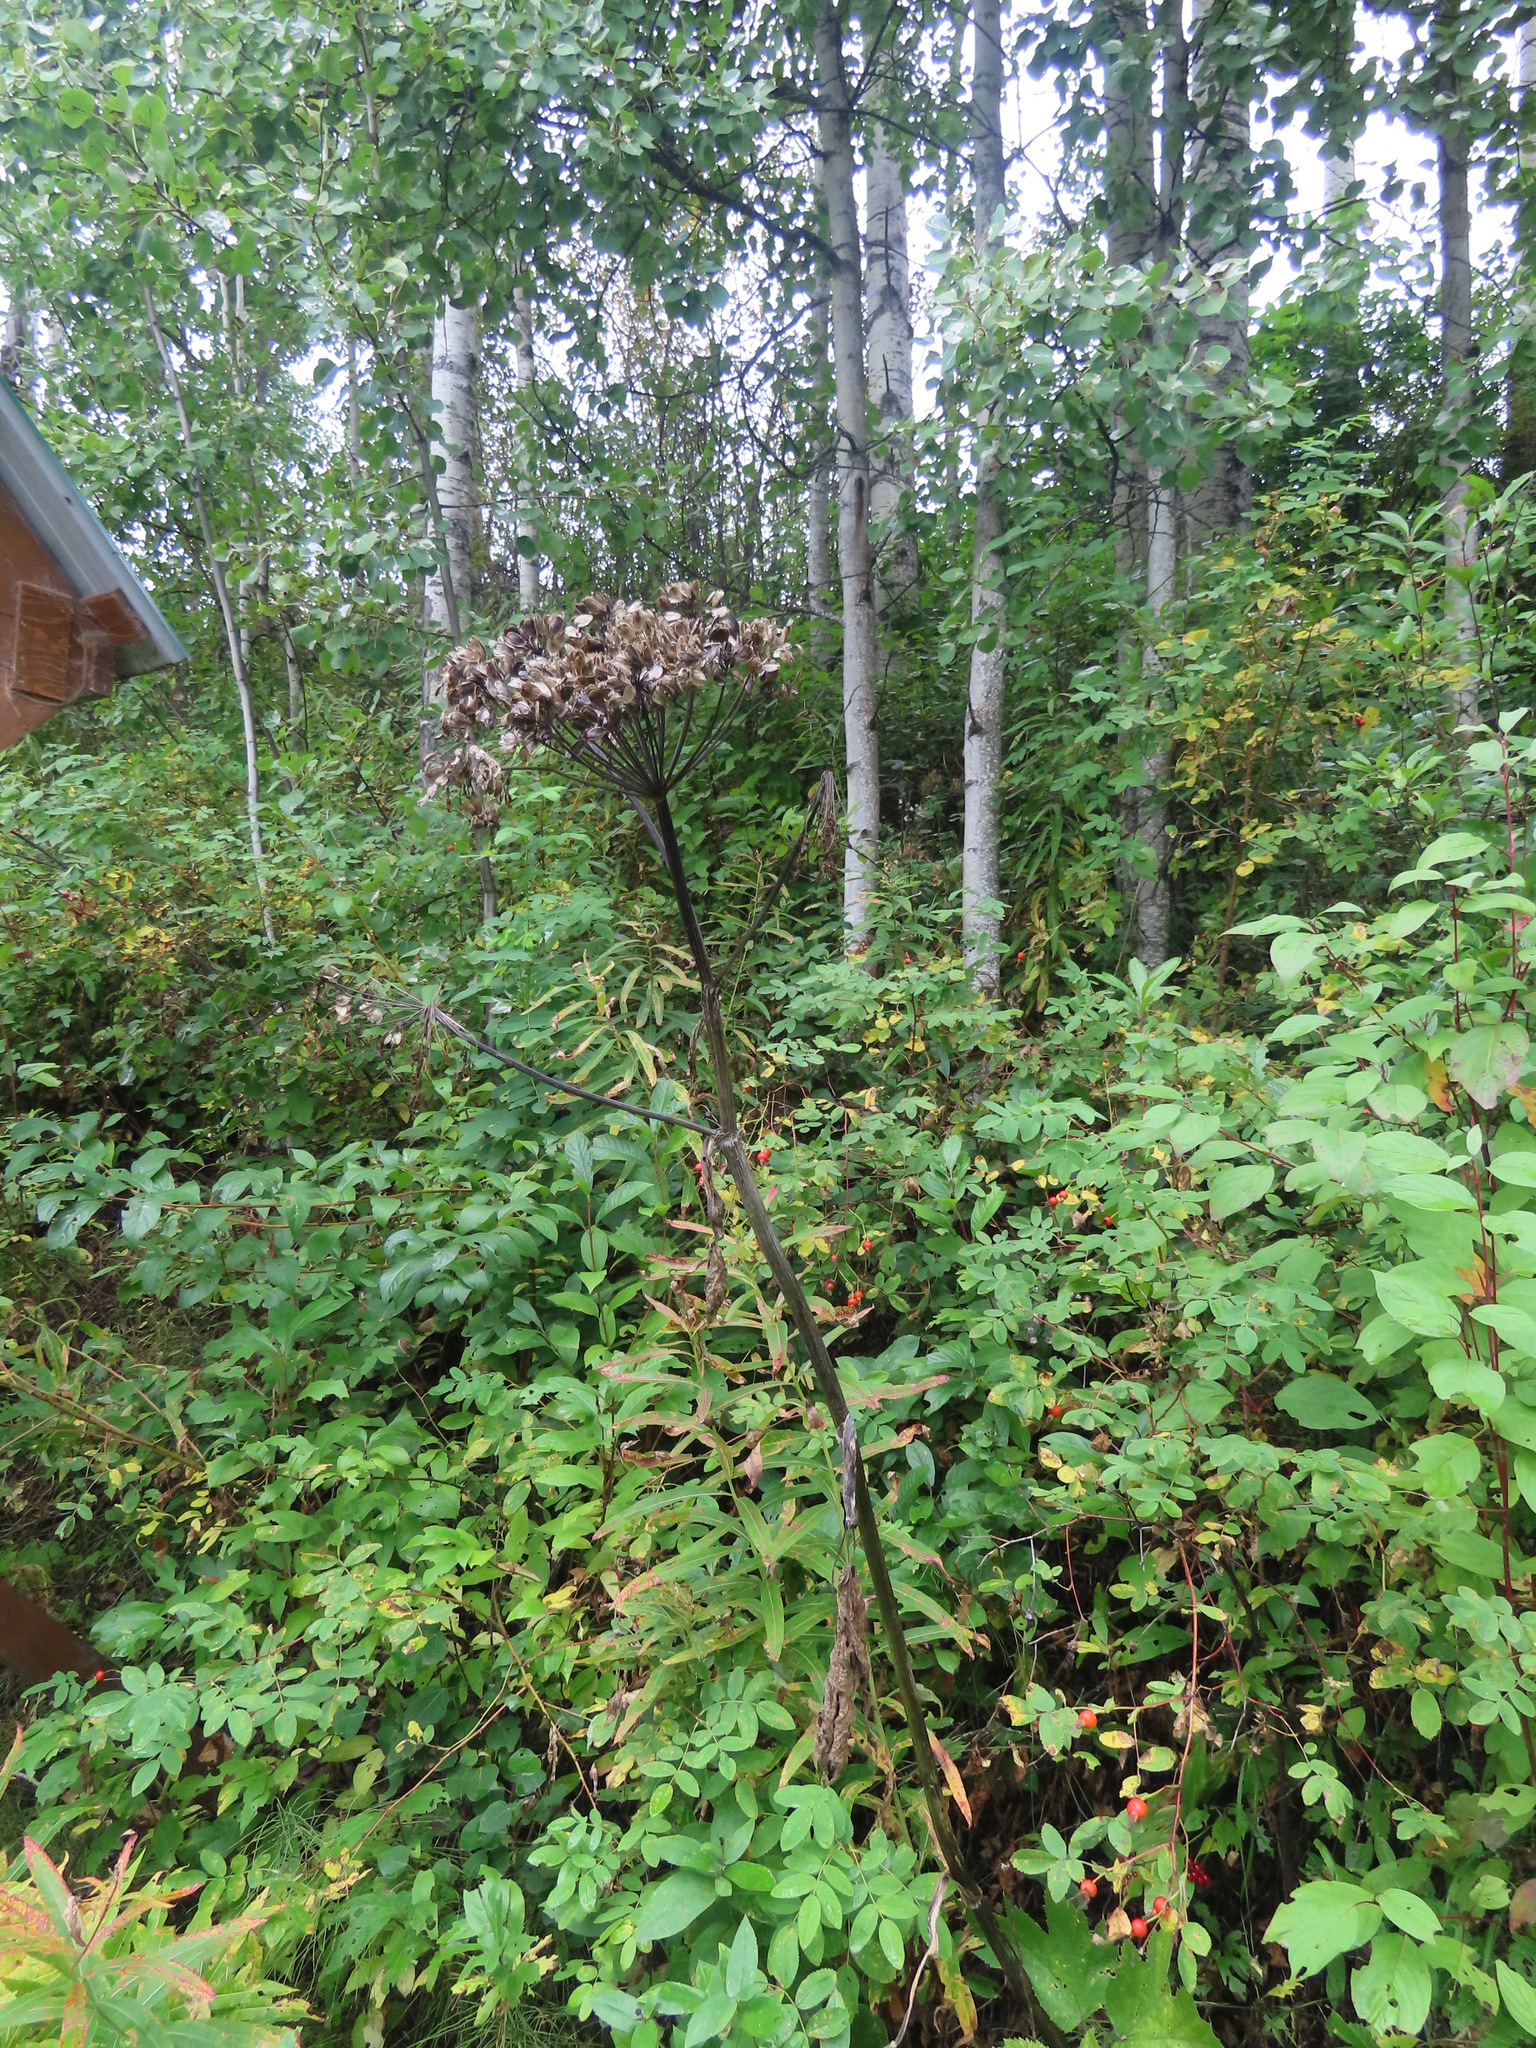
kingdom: Plantae
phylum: Tracheophyta
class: Magnoliopsida
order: Apiales
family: Apiaceae
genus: Heracleum
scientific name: Heracleum maximum
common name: American cow parsnip
